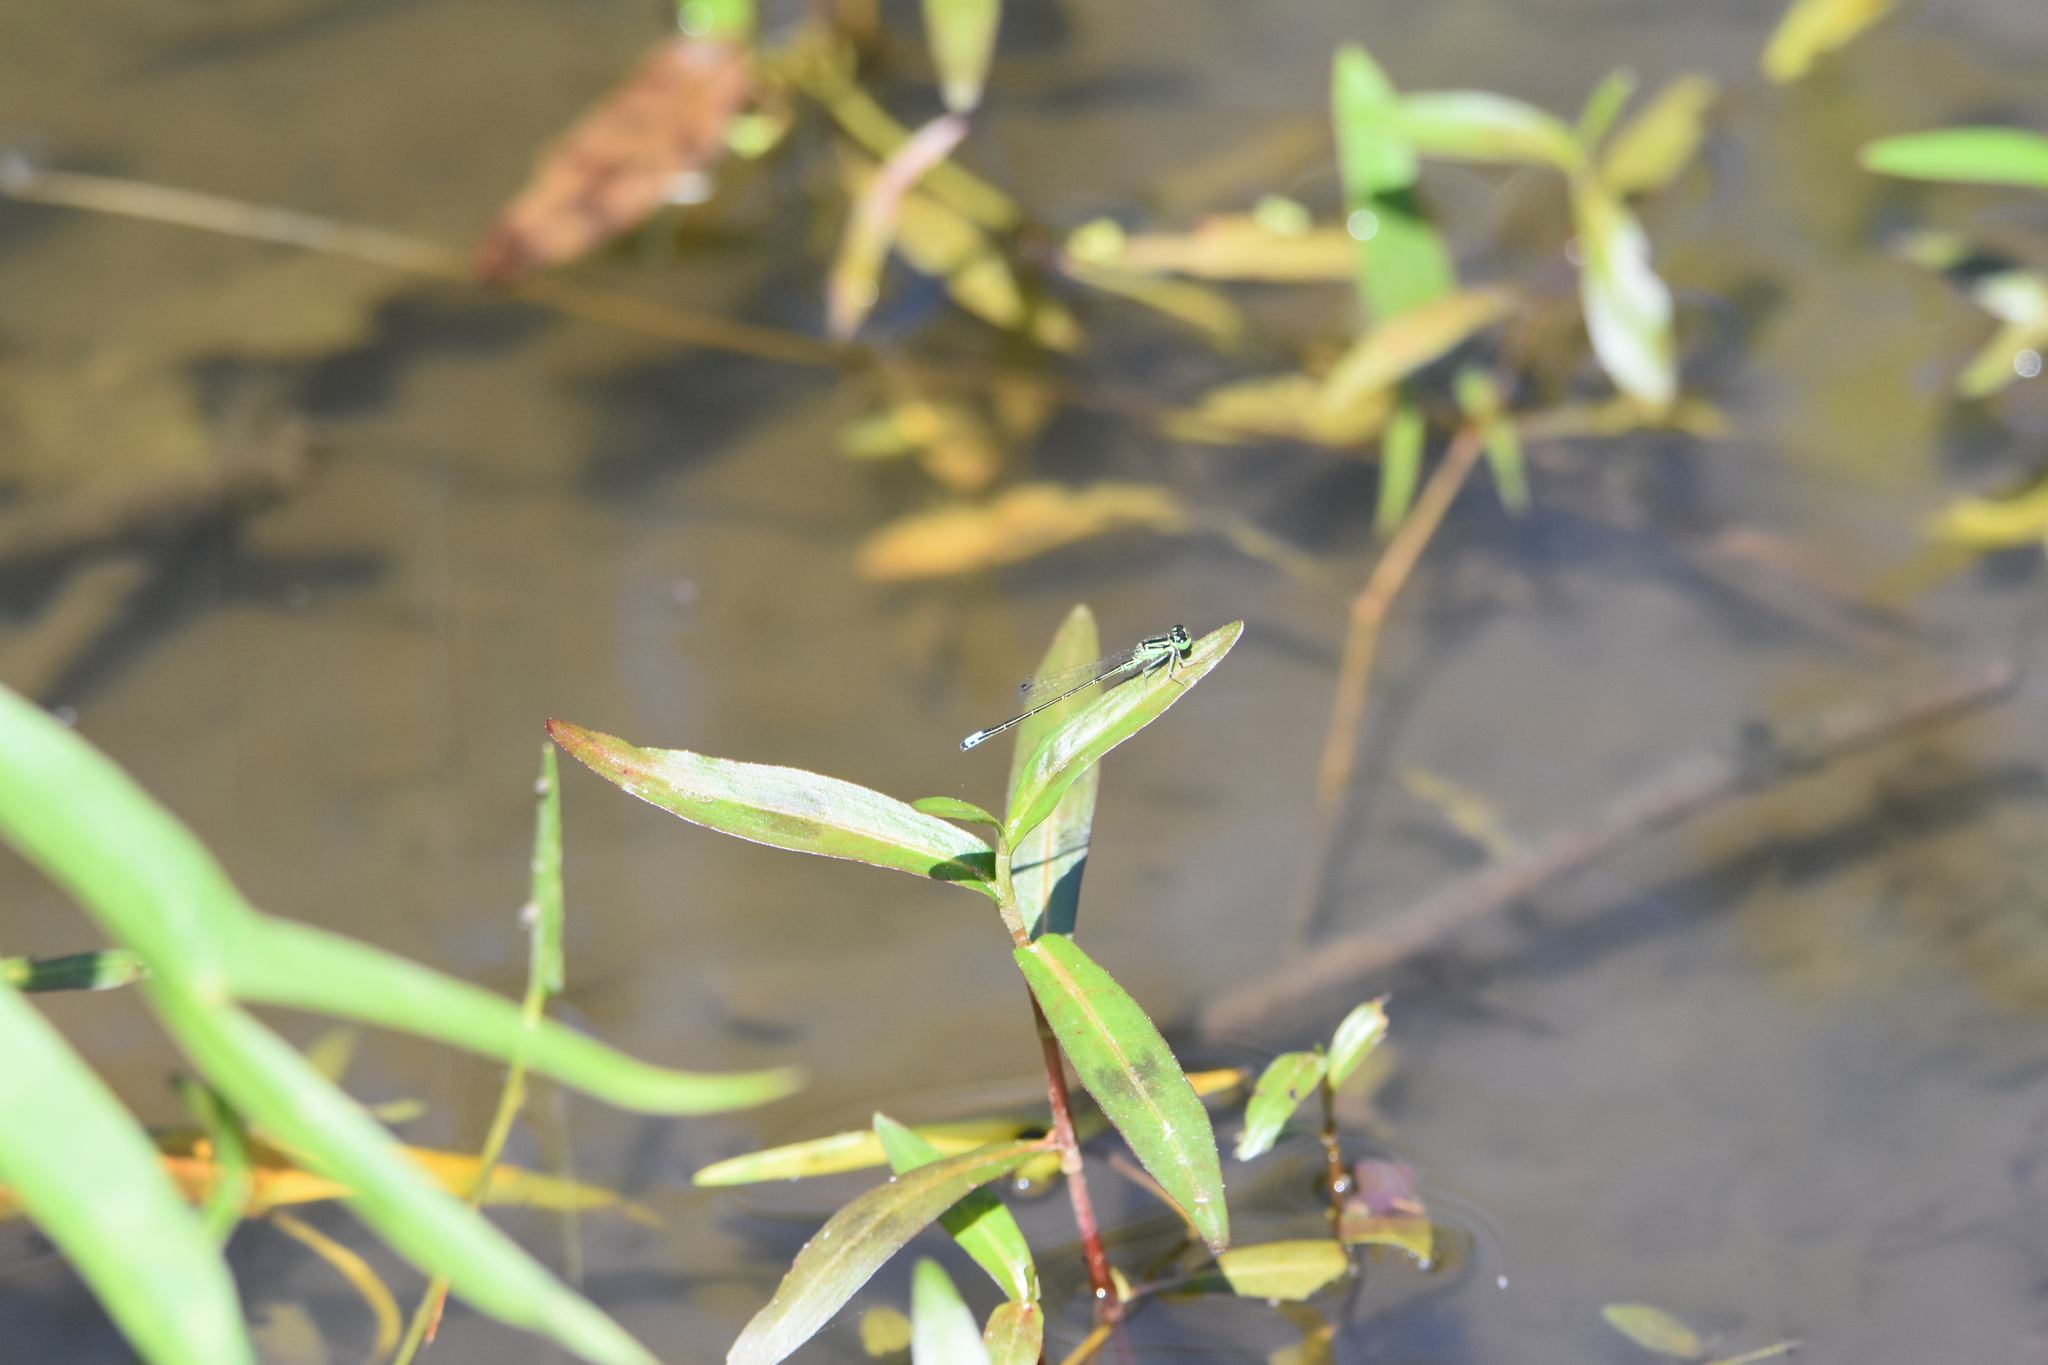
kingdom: Animalia
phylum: Arthropoda
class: Insecta
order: Odonata
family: Coenagrionidae
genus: Ischnura
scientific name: Ischnura verticalis
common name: Eastern forktail
